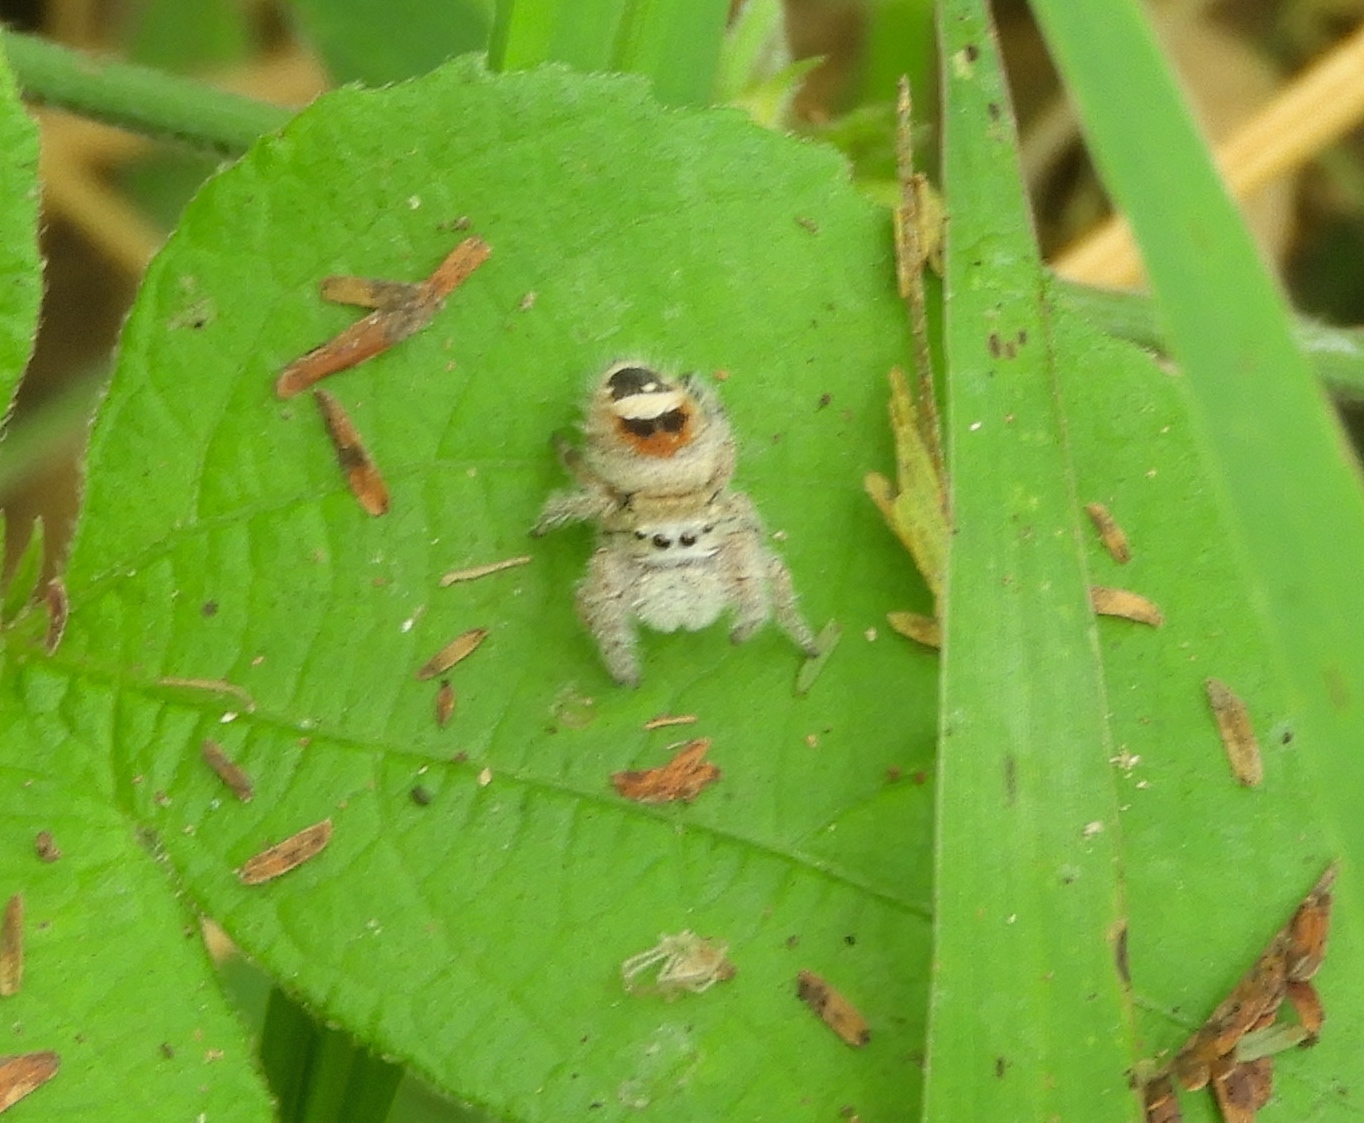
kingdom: Animalia
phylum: Arthropoda
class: Arachnida
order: Araneae
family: Salticidae
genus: Phidippus
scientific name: Phidippus pacosauritus
